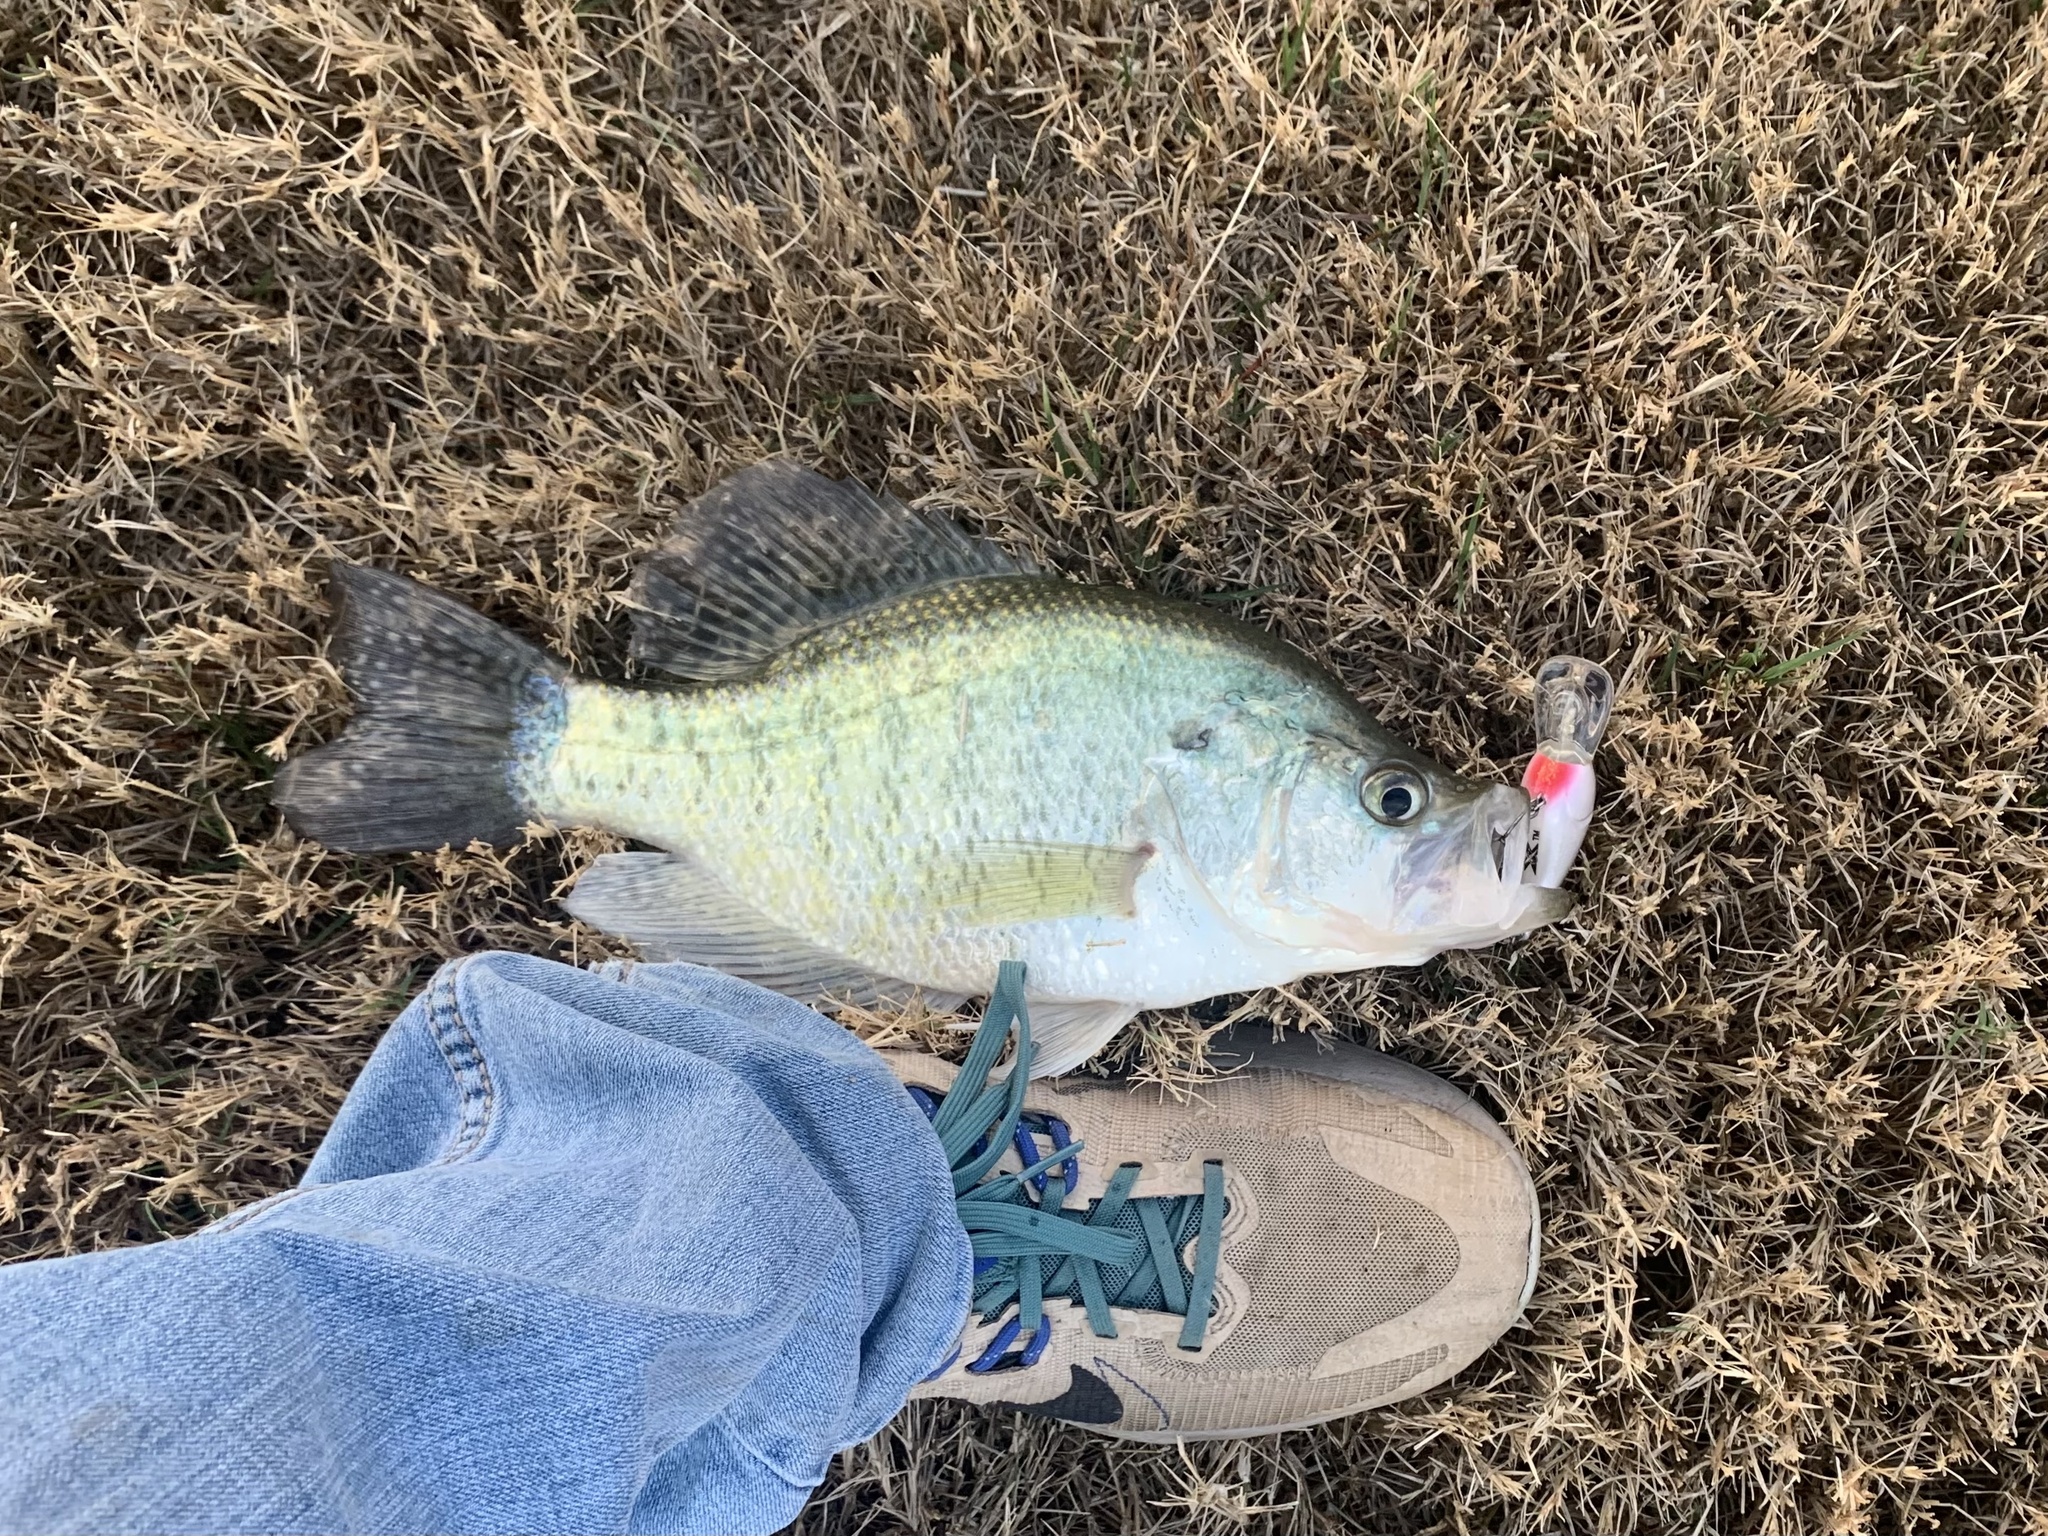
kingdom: Animalia
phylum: Chordata
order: Perciformes
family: Centrarchidae
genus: Pomoxis
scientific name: Pomoxis annularis
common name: White crappie
